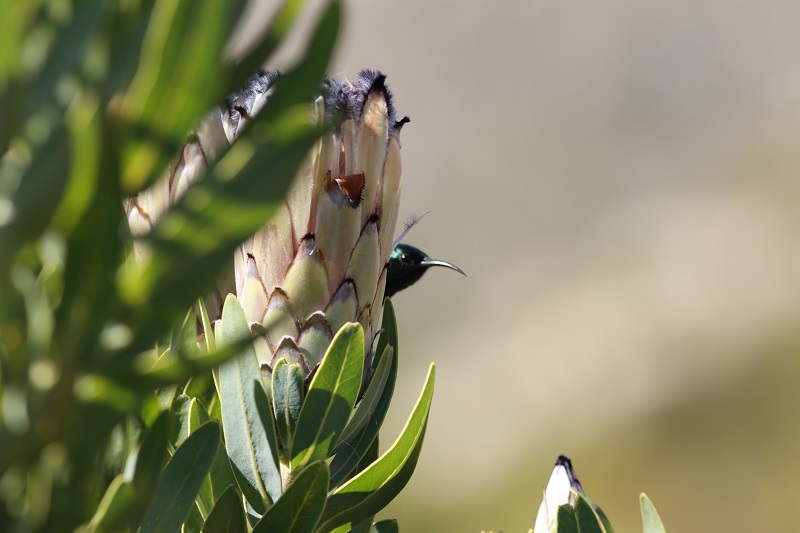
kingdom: Animalia
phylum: Chordata
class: Aves
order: Passeriformes
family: Nectariniidae
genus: Anthobaphes
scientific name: Anthobaphes violacea
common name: Orange-breasted sunbird
